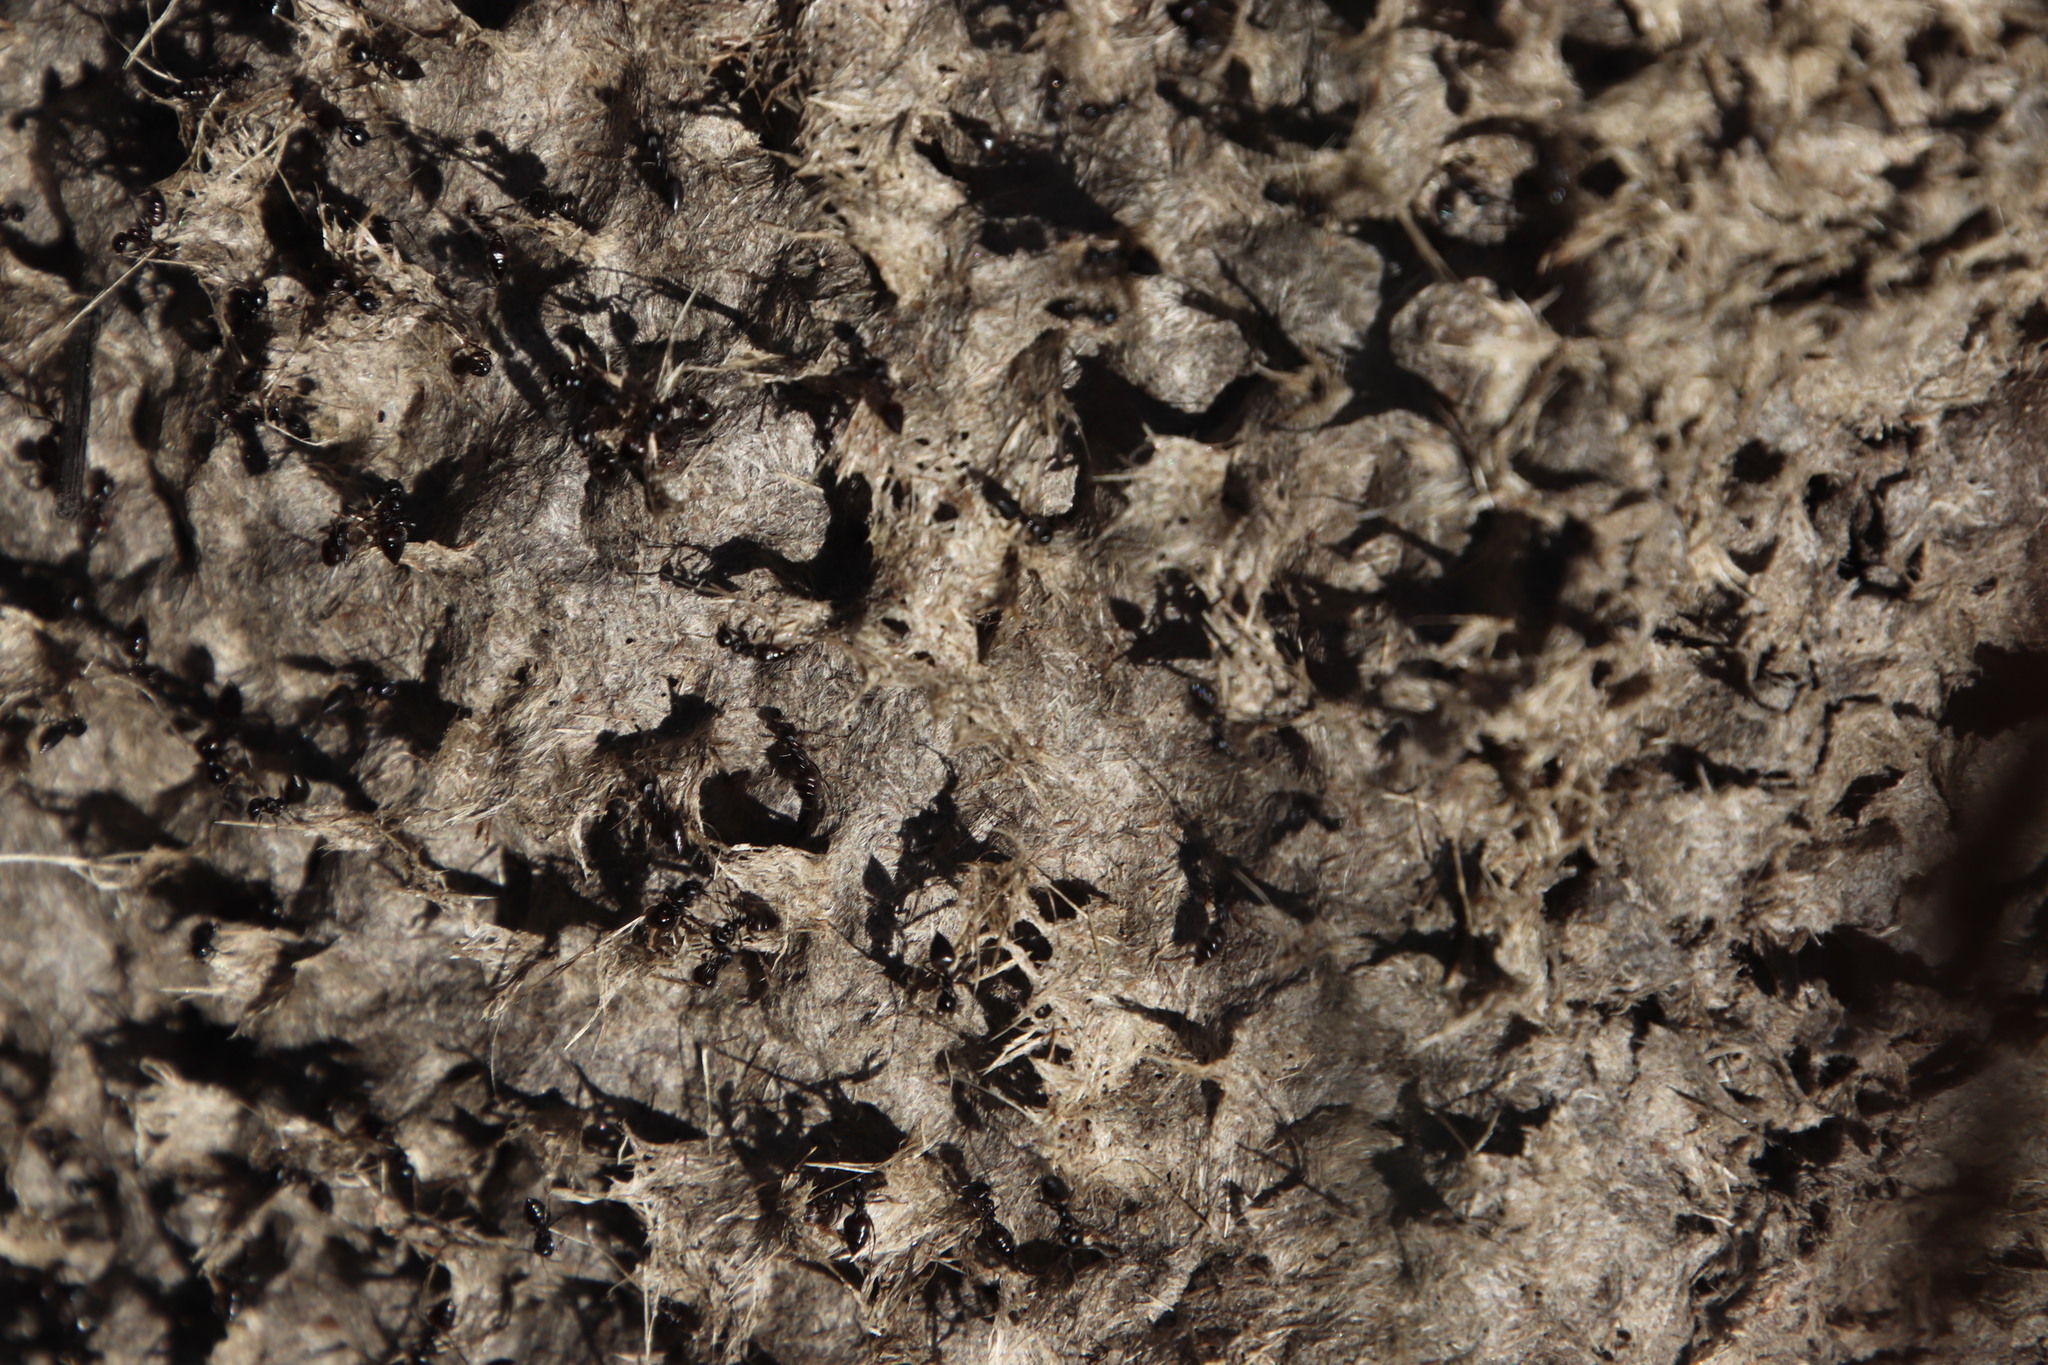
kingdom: Animalia
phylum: Arthropoda
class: Insecta
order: Hymenoptera
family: Formicidae
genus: Crematogaster
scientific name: Crematogaster peringueyi
